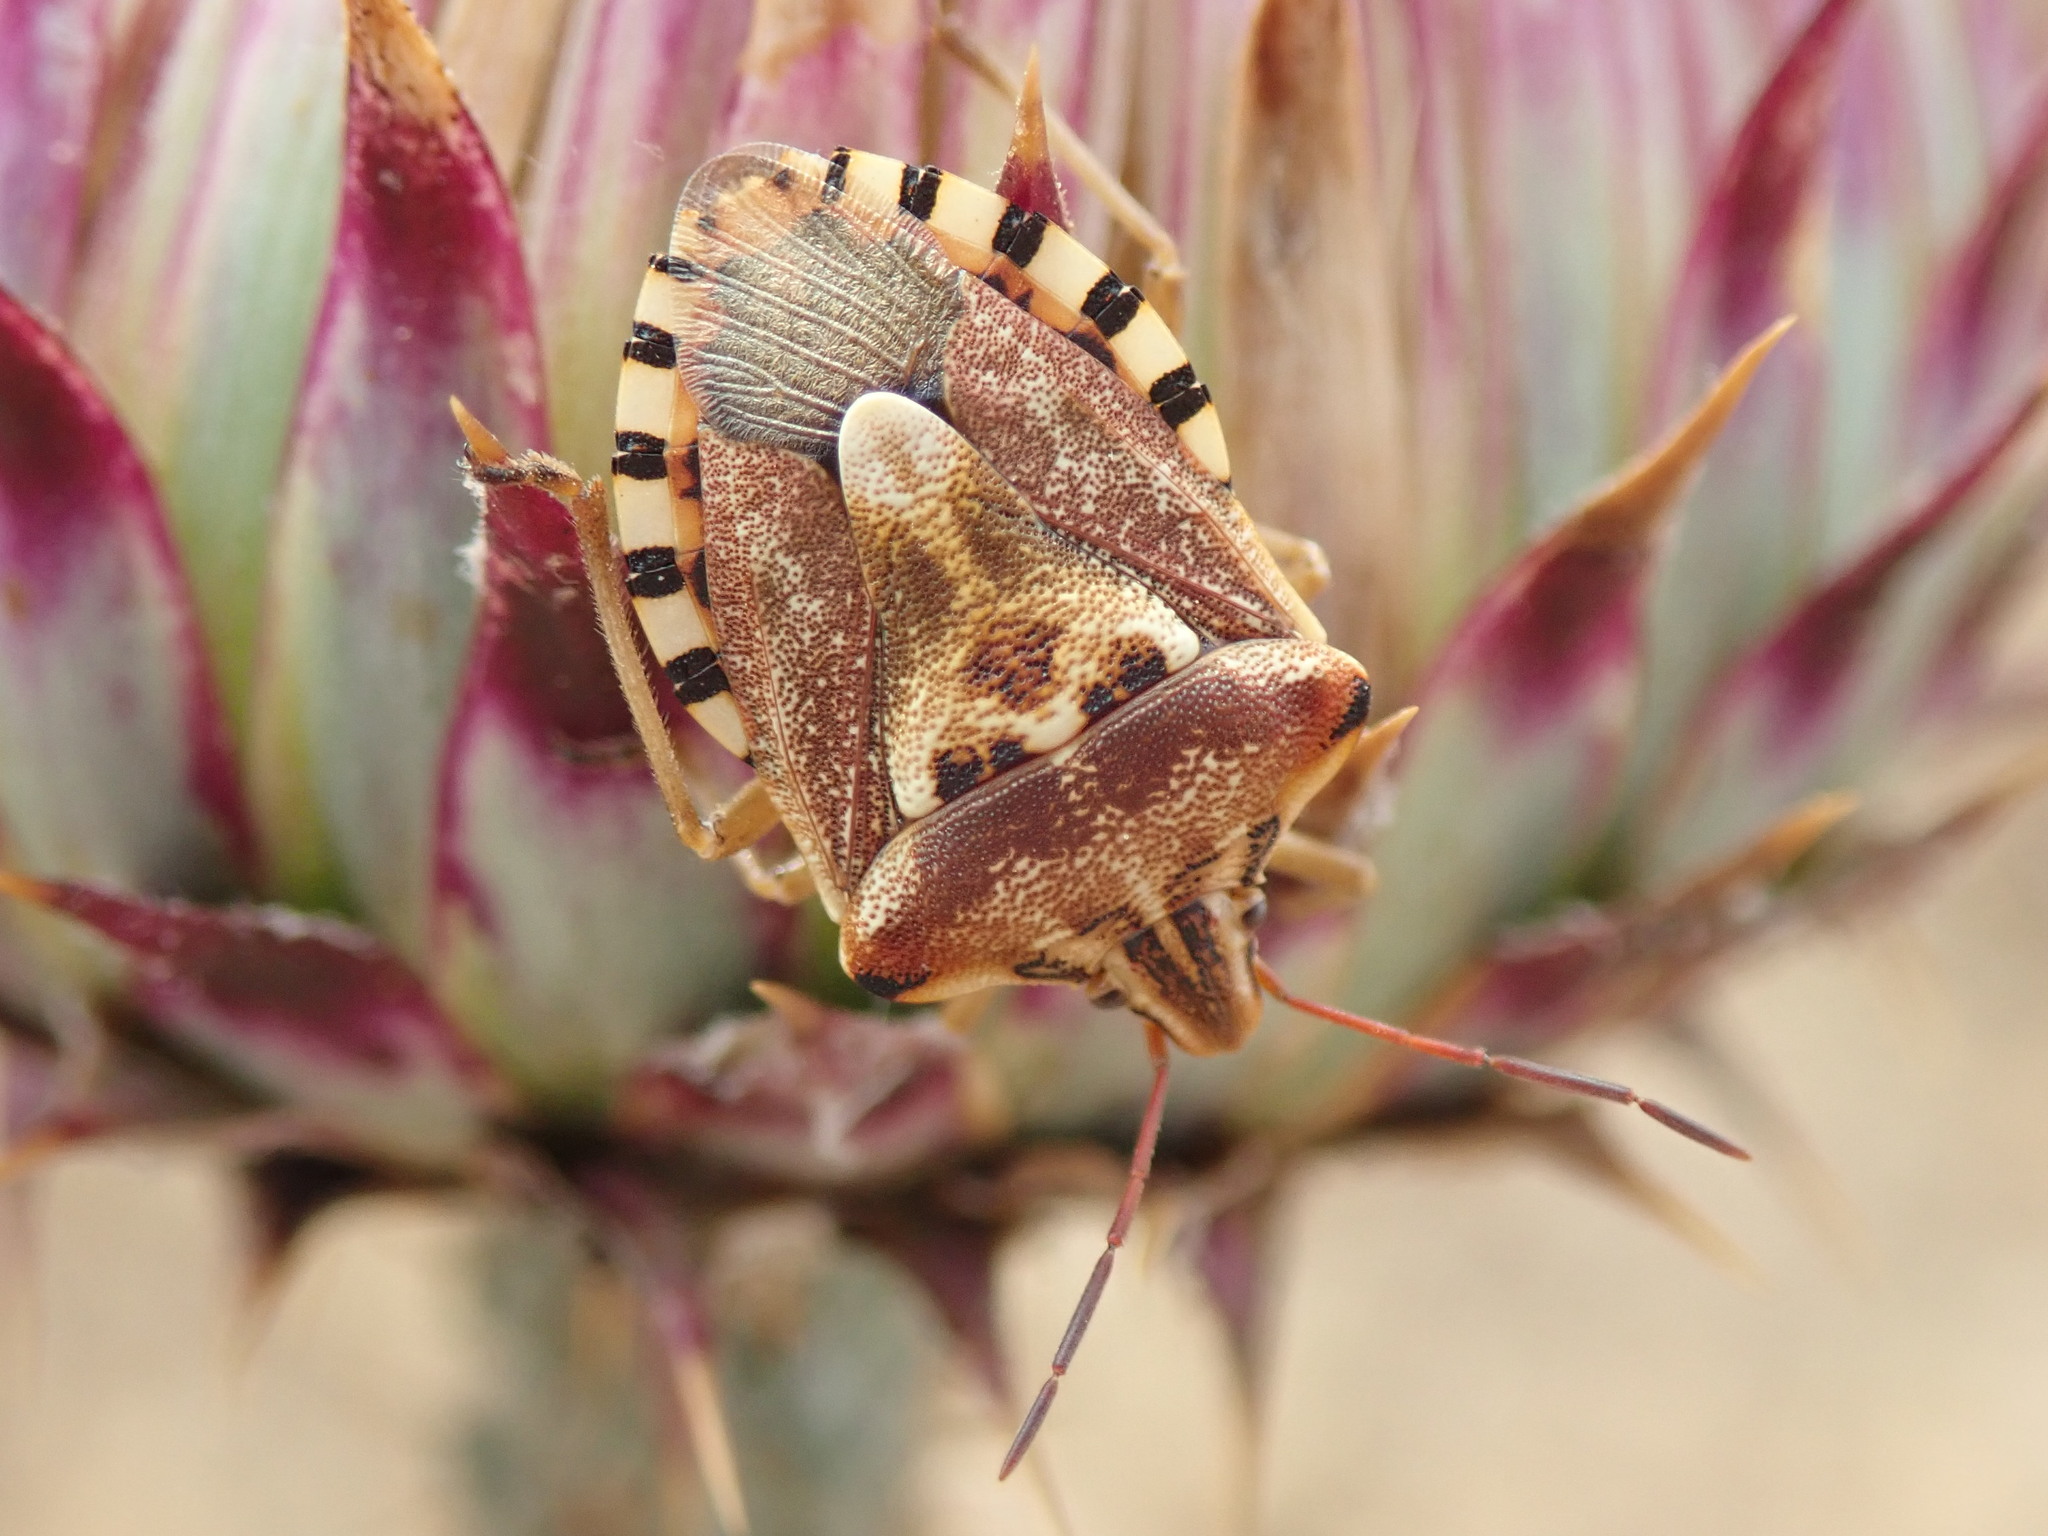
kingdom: Animalia
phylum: Arthropoda
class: Insecta
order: Hemiptera
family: Miridae
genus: Orthops
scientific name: Orthops kalmii
